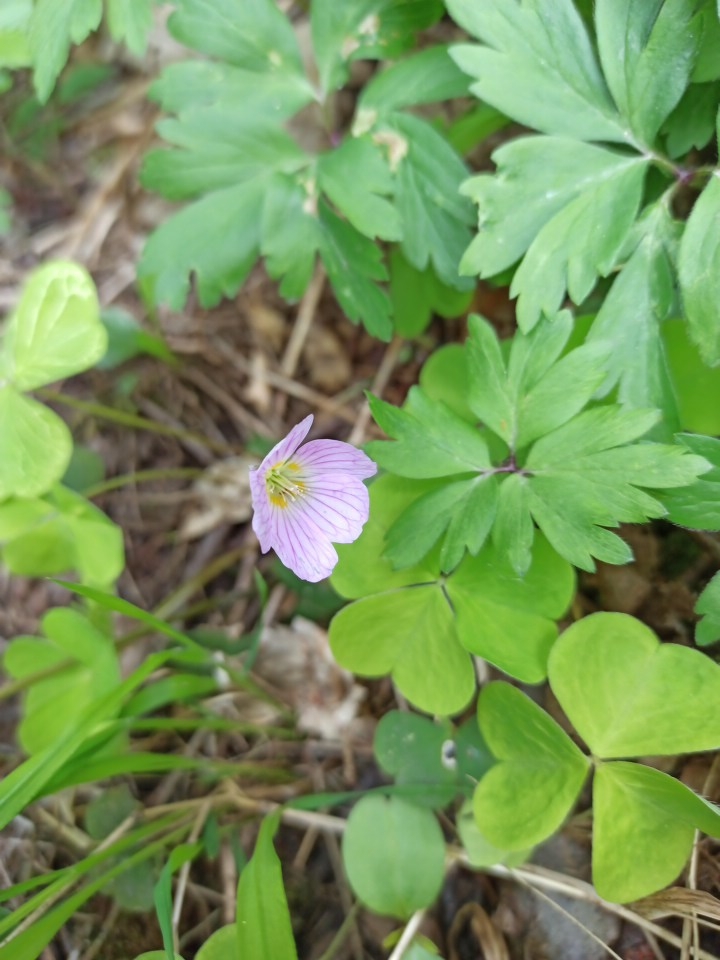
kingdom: Plantae
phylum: Tracheophyta
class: Magnoliopsida
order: Ericales
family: Primulaceae
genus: Primula
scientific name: Primula veris
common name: Cowslip
